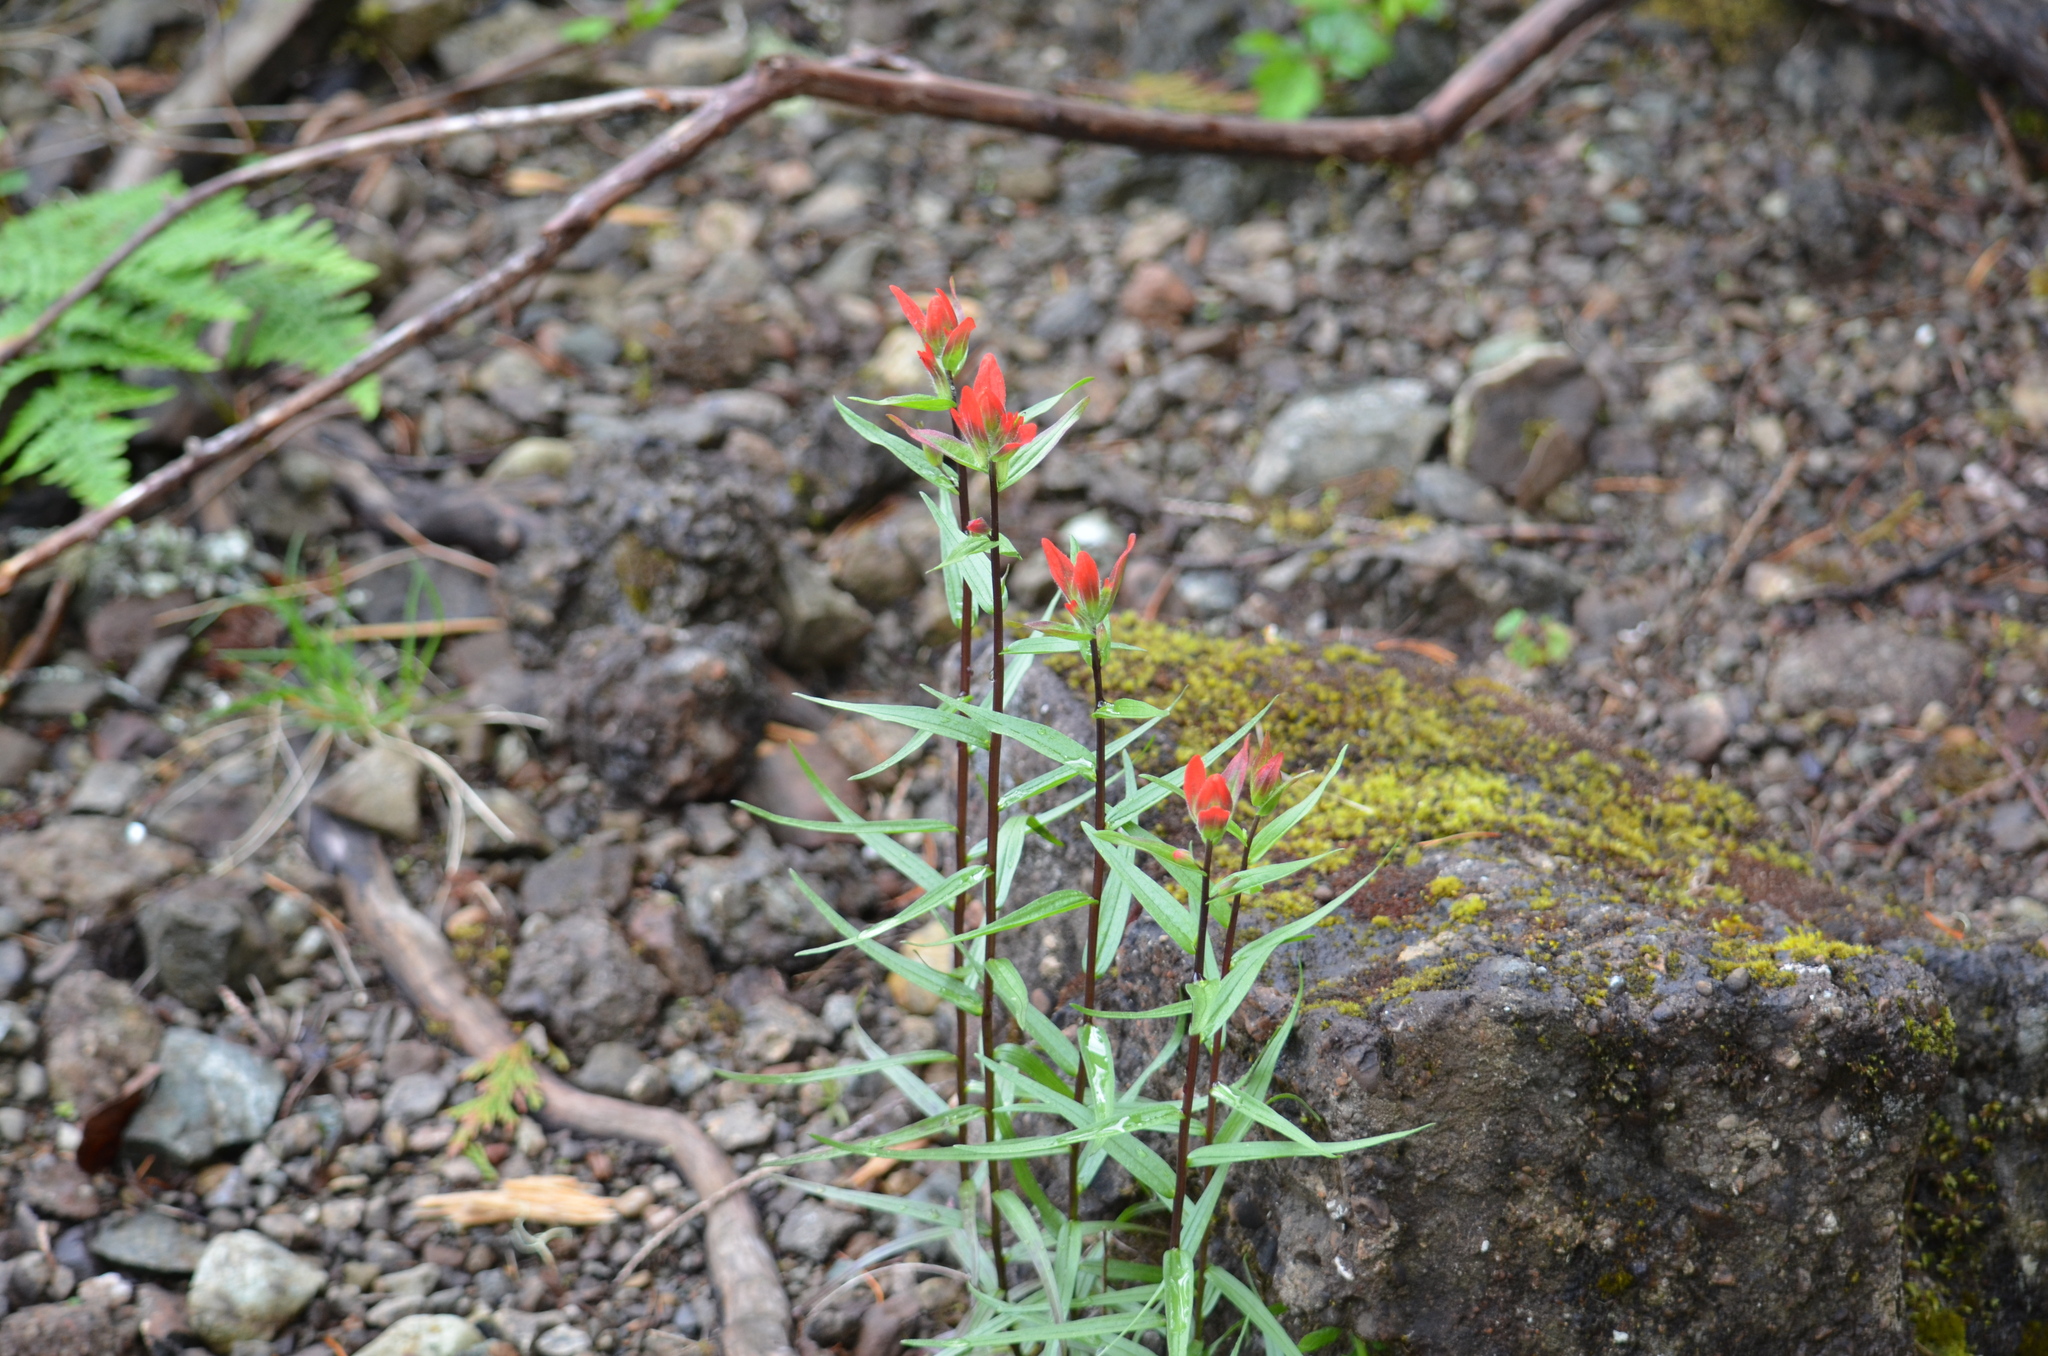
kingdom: Plantae
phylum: Tracheophyta
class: Magnoliopsida
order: Lamiales
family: Orobanchaceae
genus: Castilleja
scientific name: Castilleja miniata
